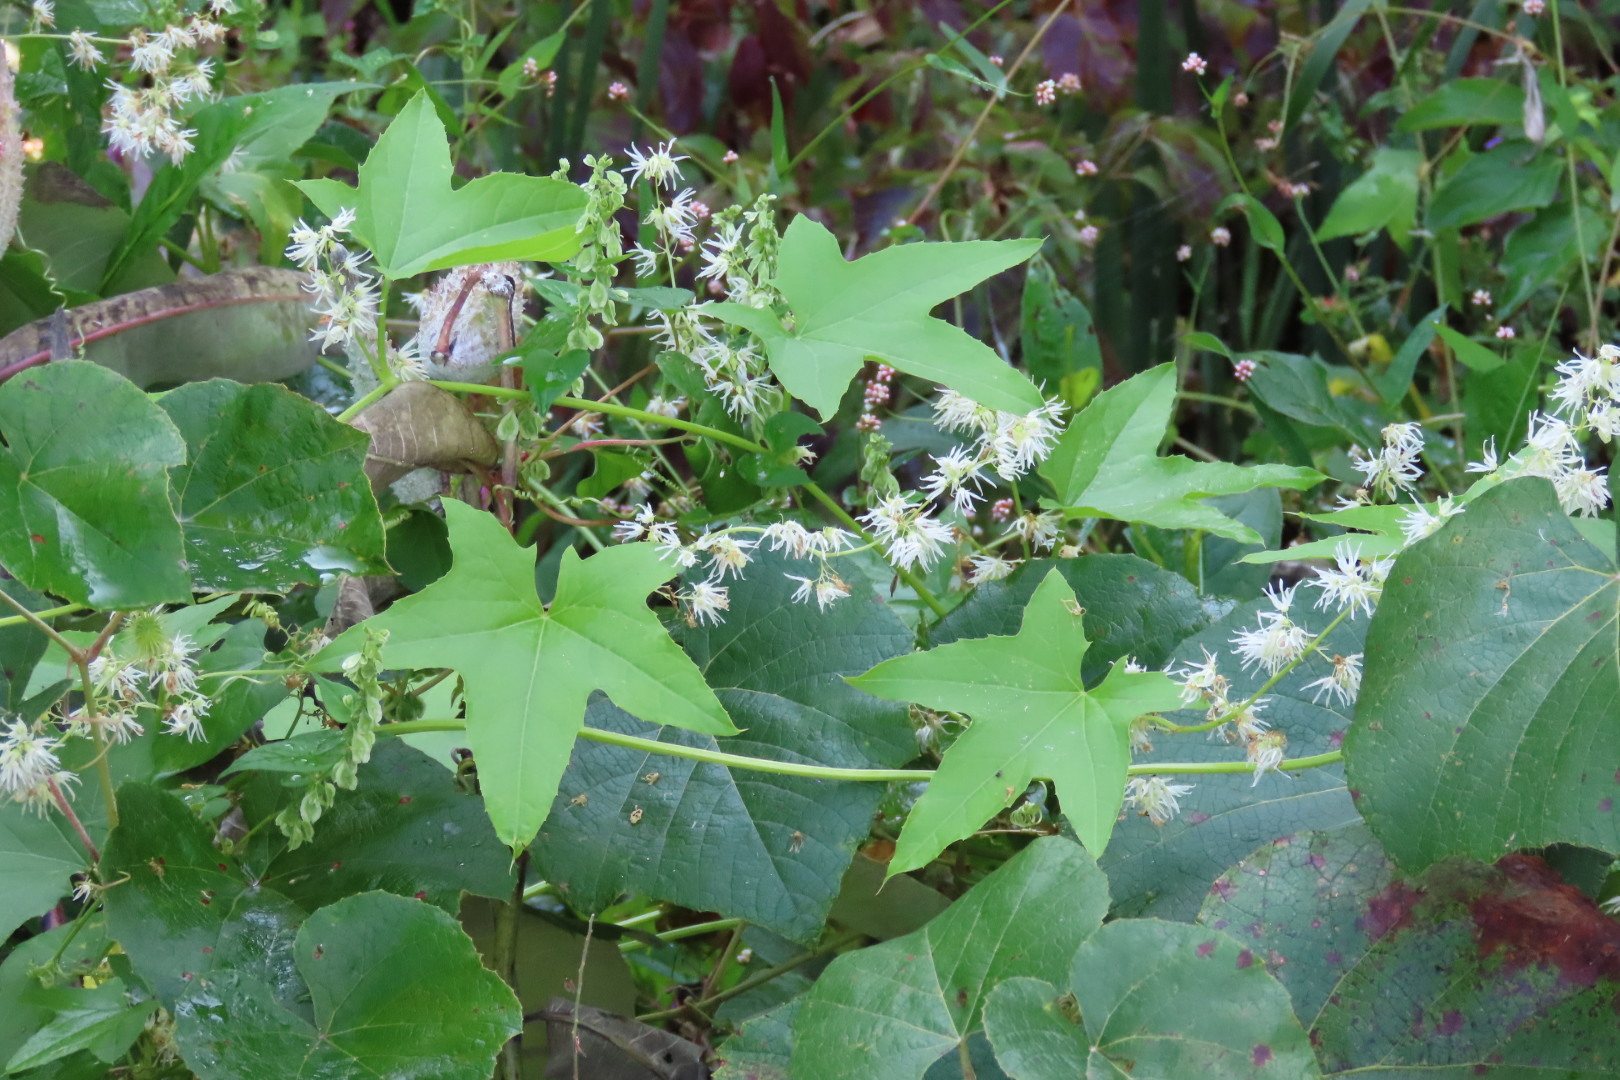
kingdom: Plantae
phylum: Tracheophyta
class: Magnoliopsida
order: Cucurbitales
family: Cucurbitaceae
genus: Echinocystis
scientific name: Echinocystis lobata
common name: Wild cucumber
